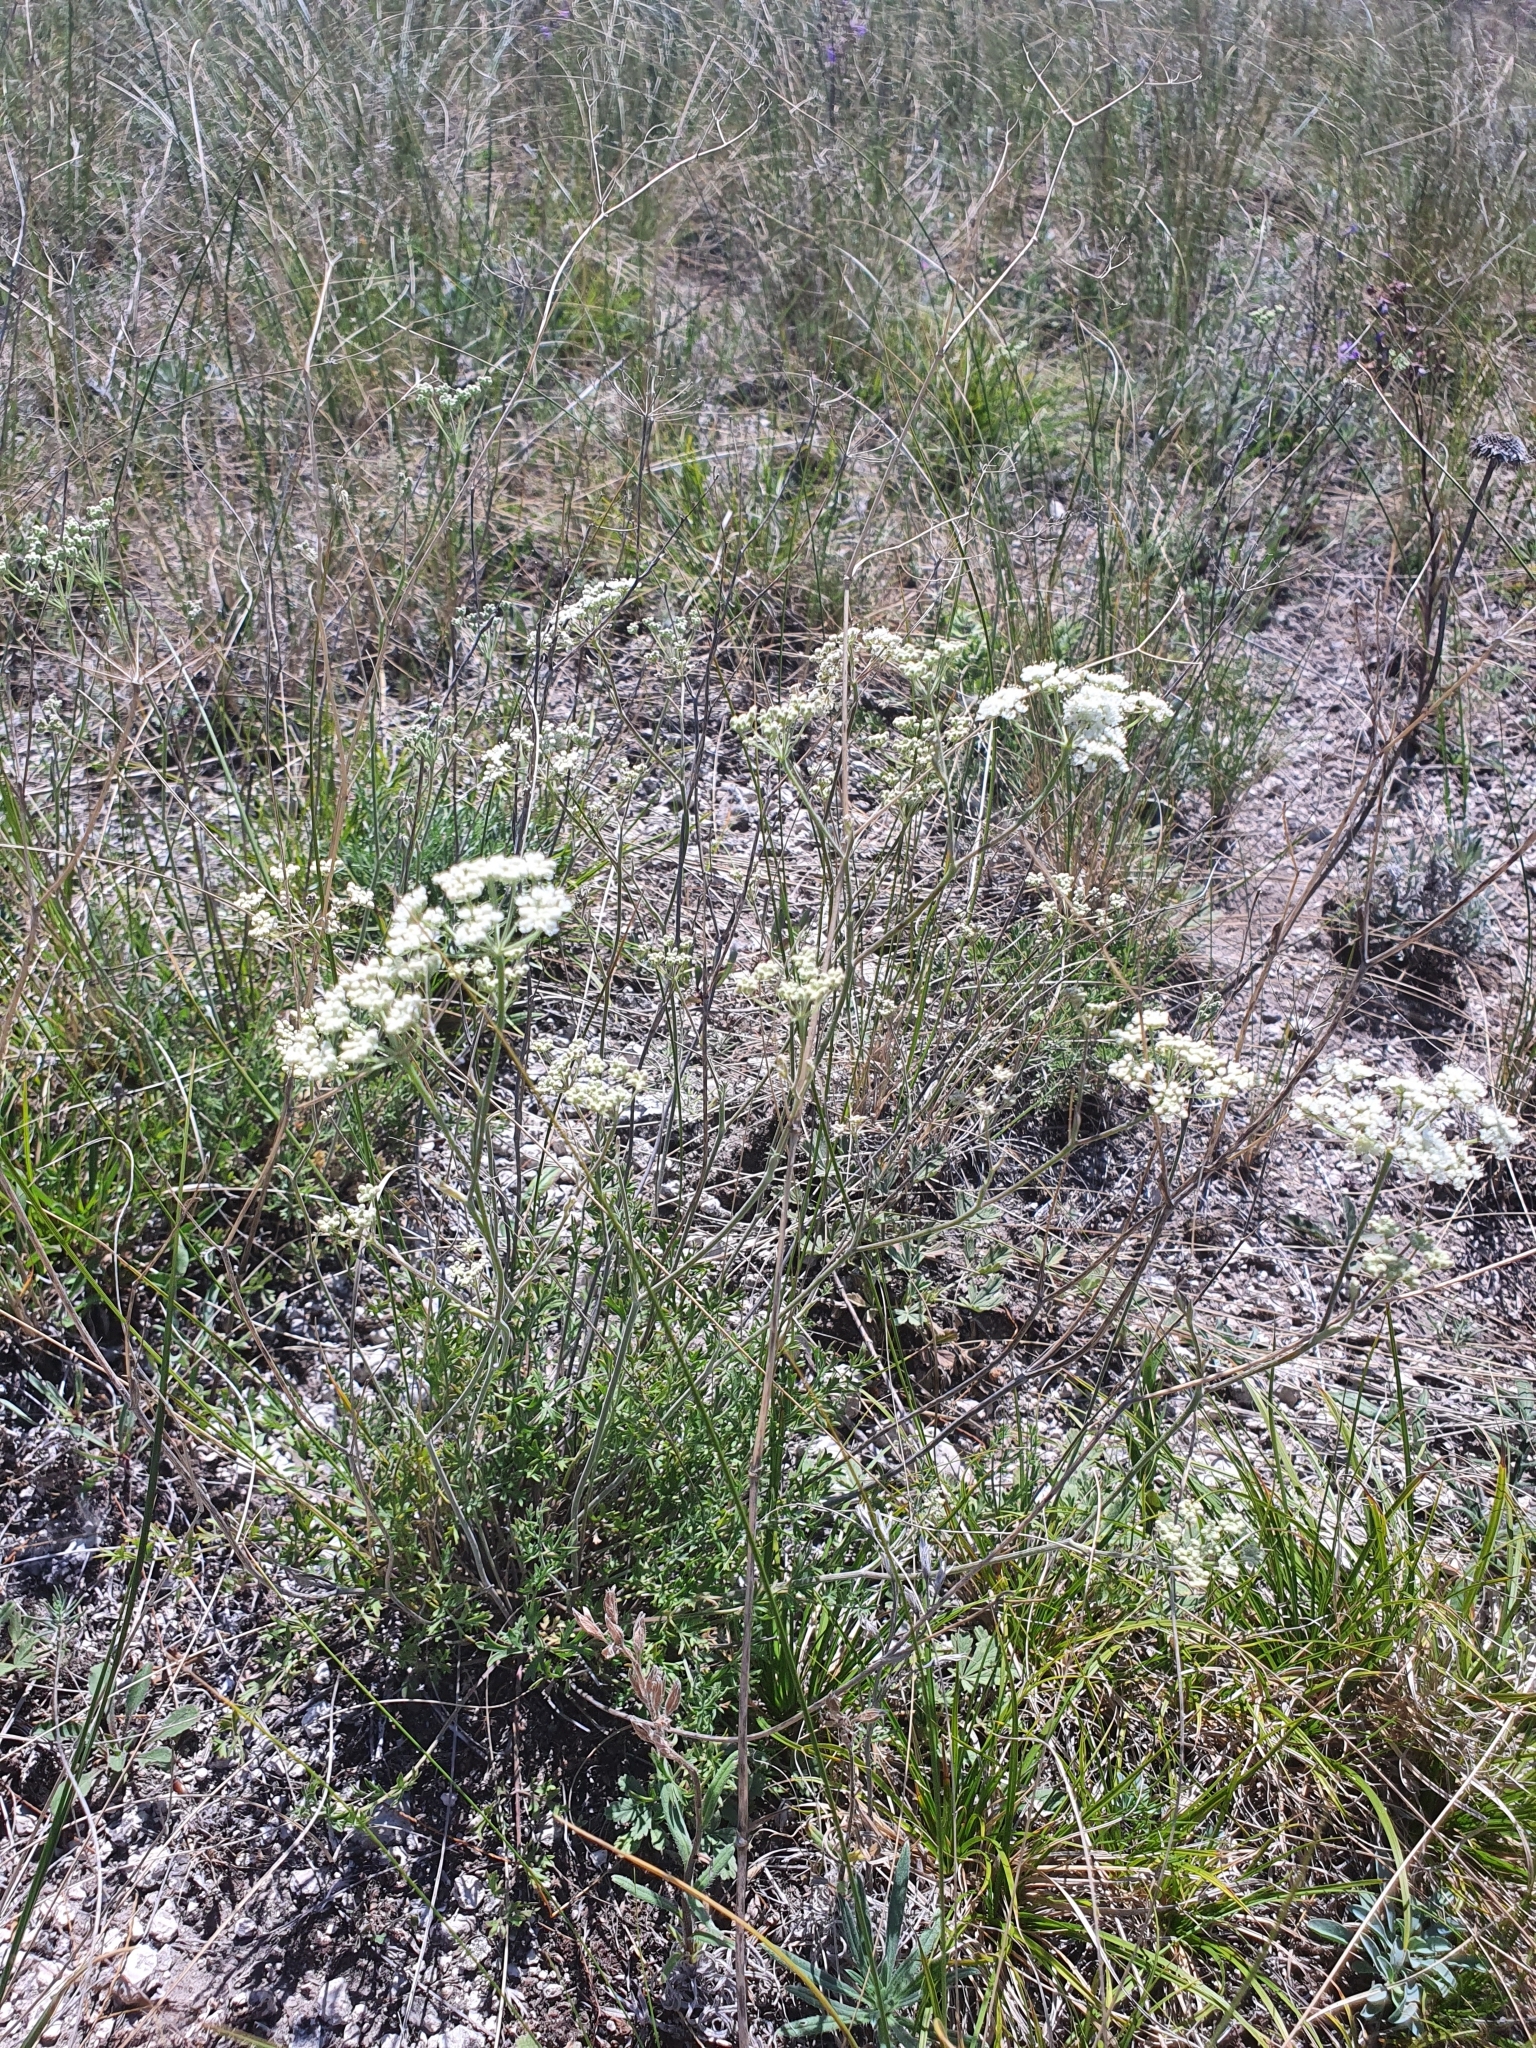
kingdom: Plantae
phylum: Tracheophyta
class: Magnoliopsida
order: Apiales
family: Apiaceae
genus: Pimpinella
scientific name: Pimpinella tragium
